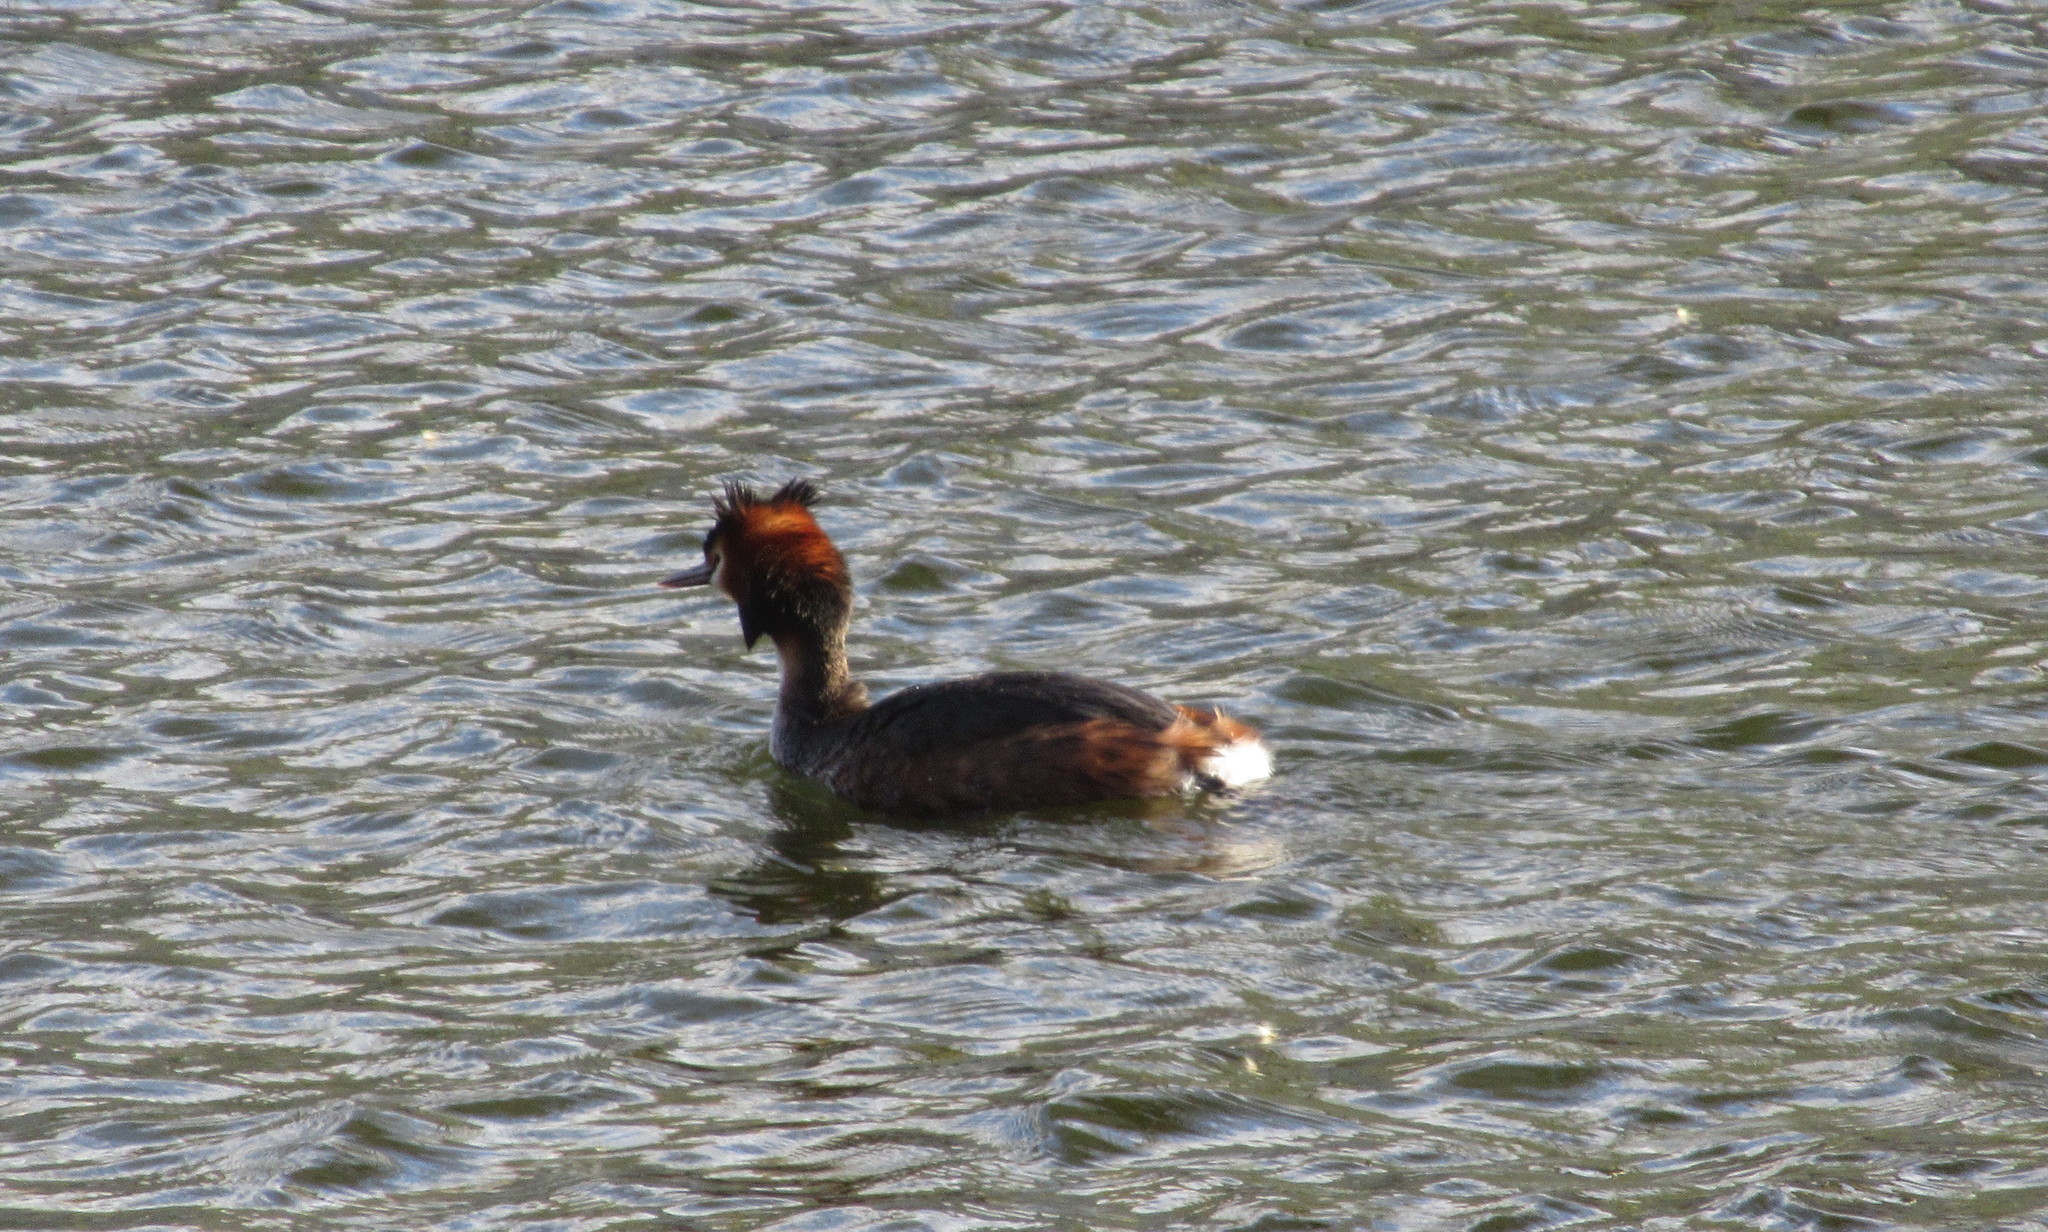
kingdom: Animalia
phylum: Chordata
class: Aves
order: Podicipediformes
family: Podicipedidae
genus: Podiceps
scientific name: Podiceps cristatus
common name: Great crested grebe
